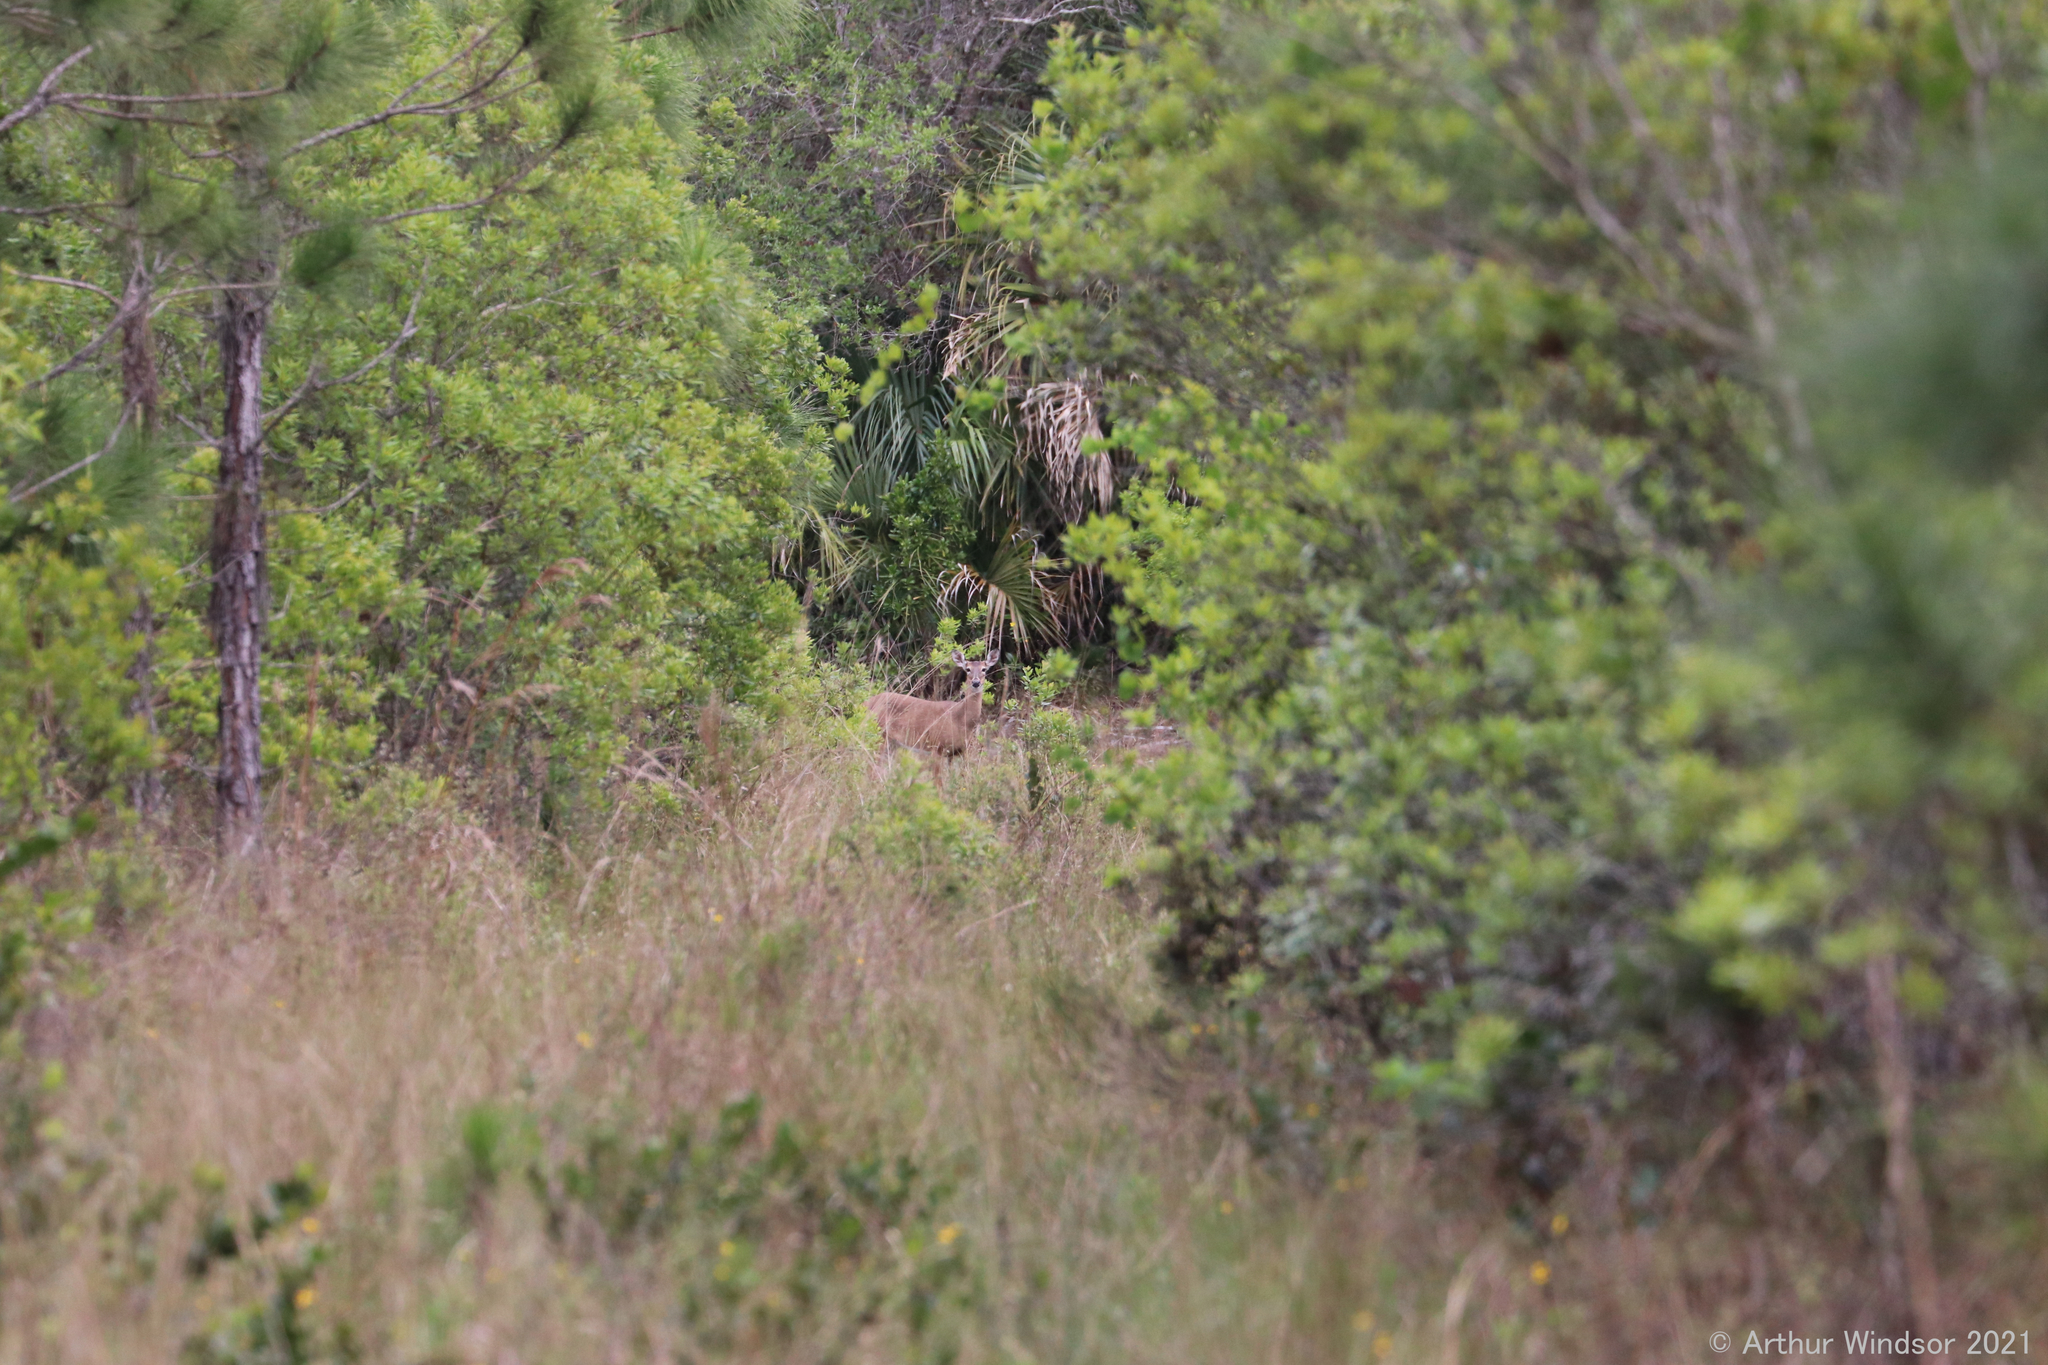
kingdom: Animalia
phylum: Chordata
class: Mammalia
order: Artiodactyla
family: Cervidae
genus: Odocoileus
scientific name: Odocoileus virginianus
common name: White-tailed deer
